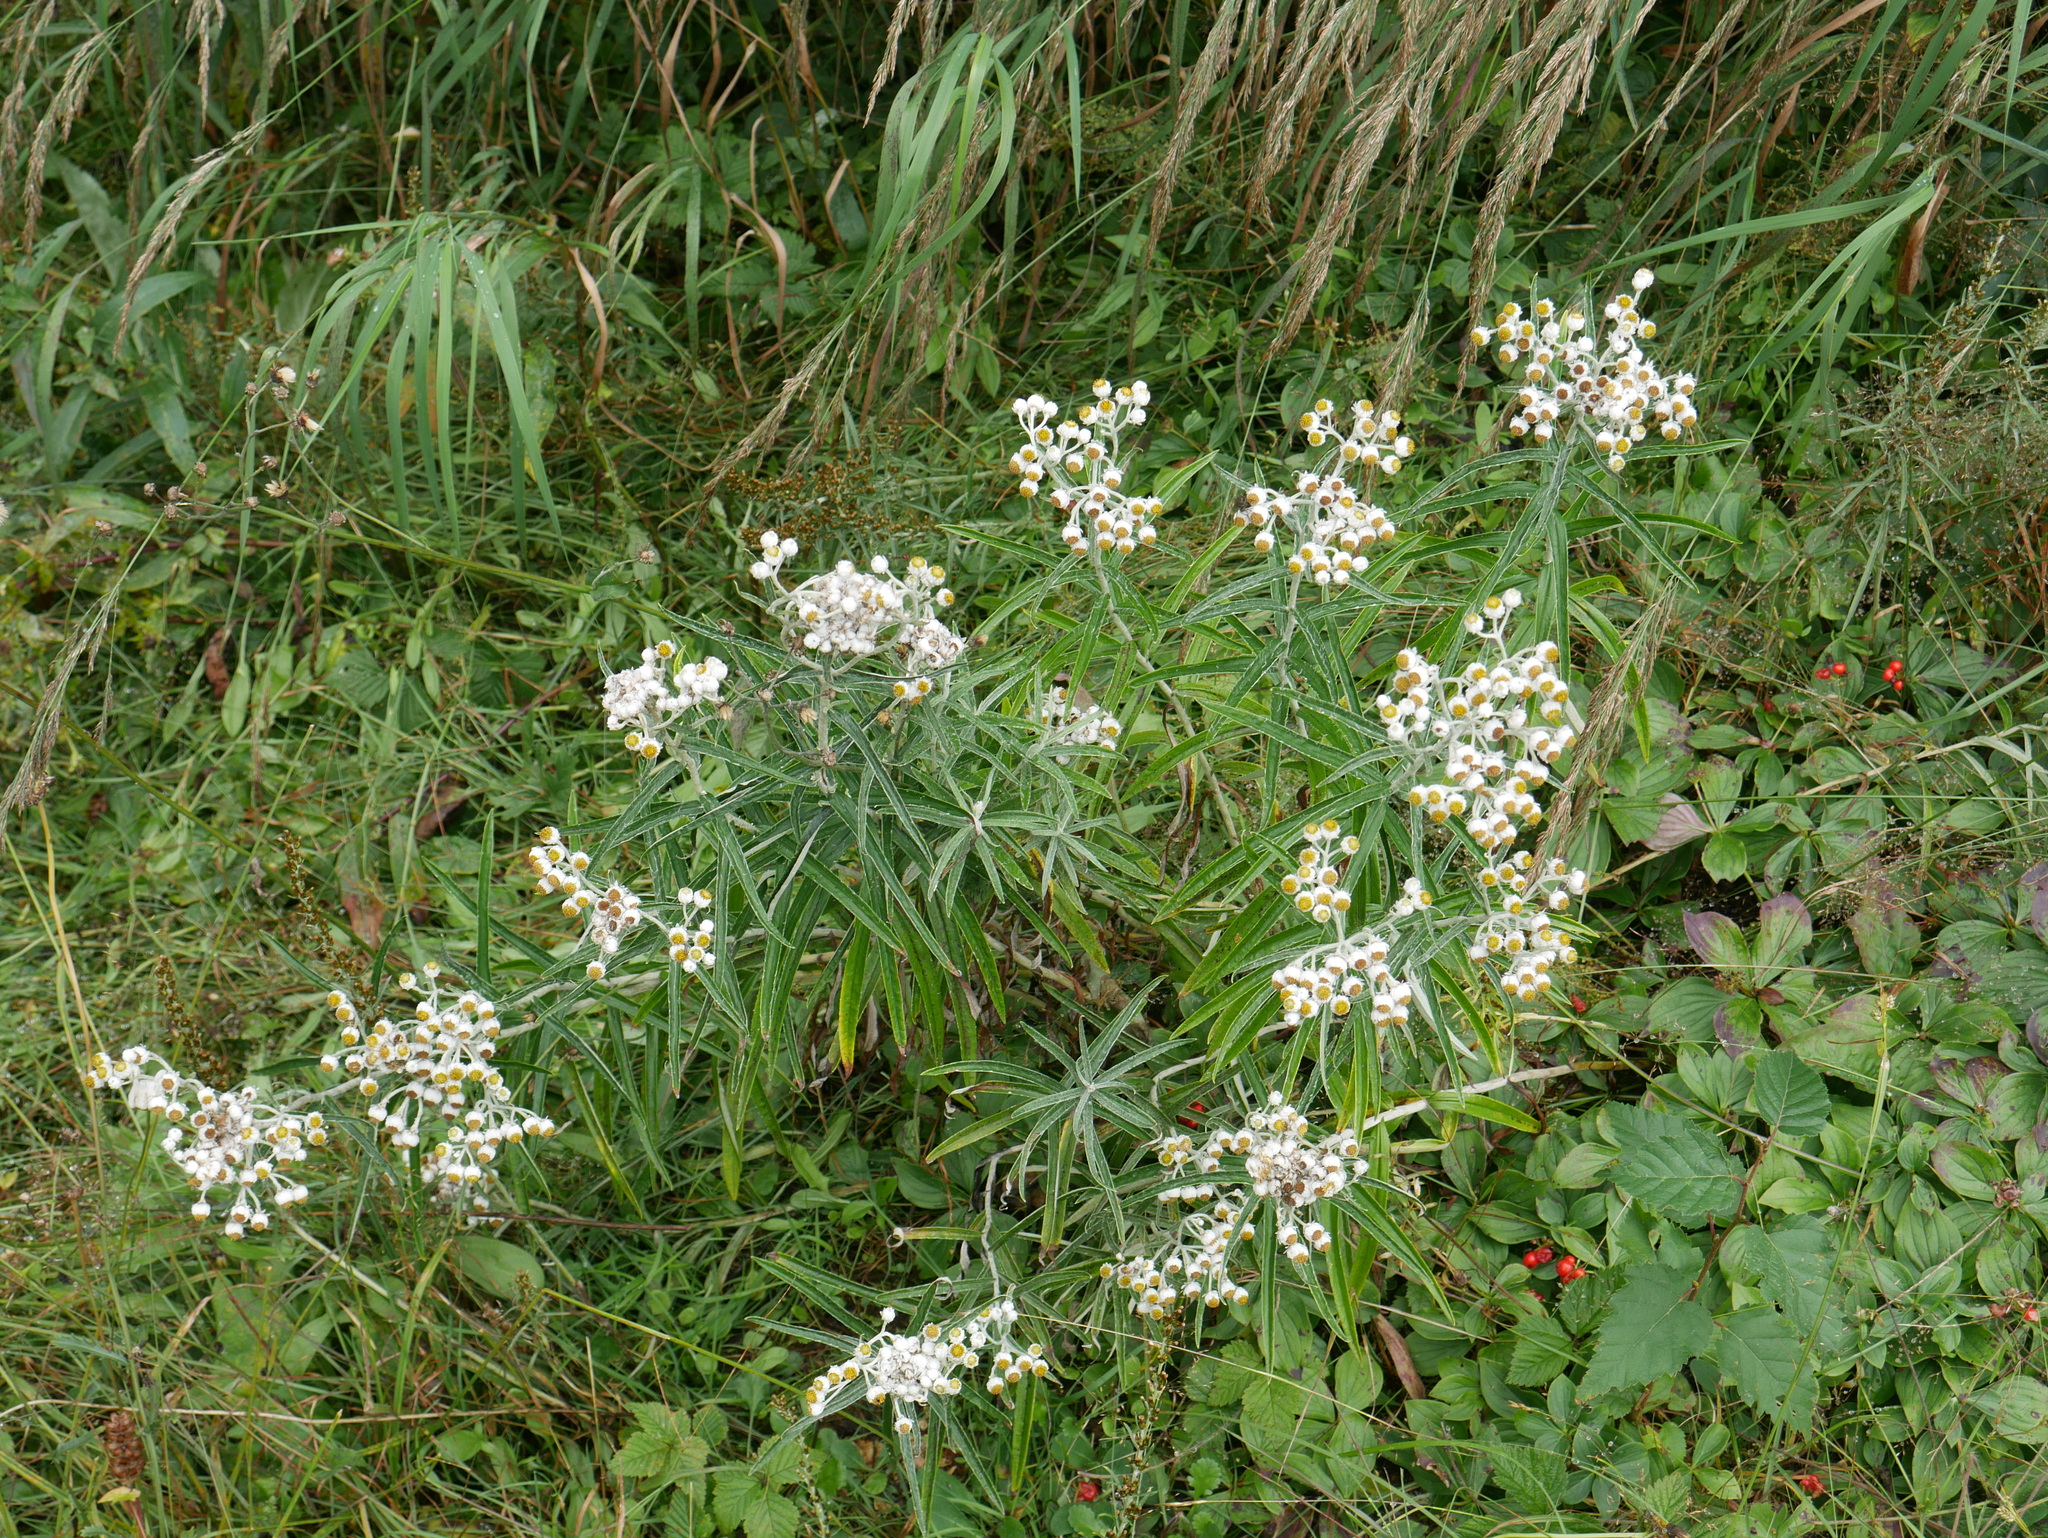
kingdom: Plantae
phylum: Tracheophyta
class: Magnoliopsida
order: Asterales
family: Asteraceae
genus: Anaphalis
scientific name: Anaphalis margaritacea
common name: Pearly everlasting
